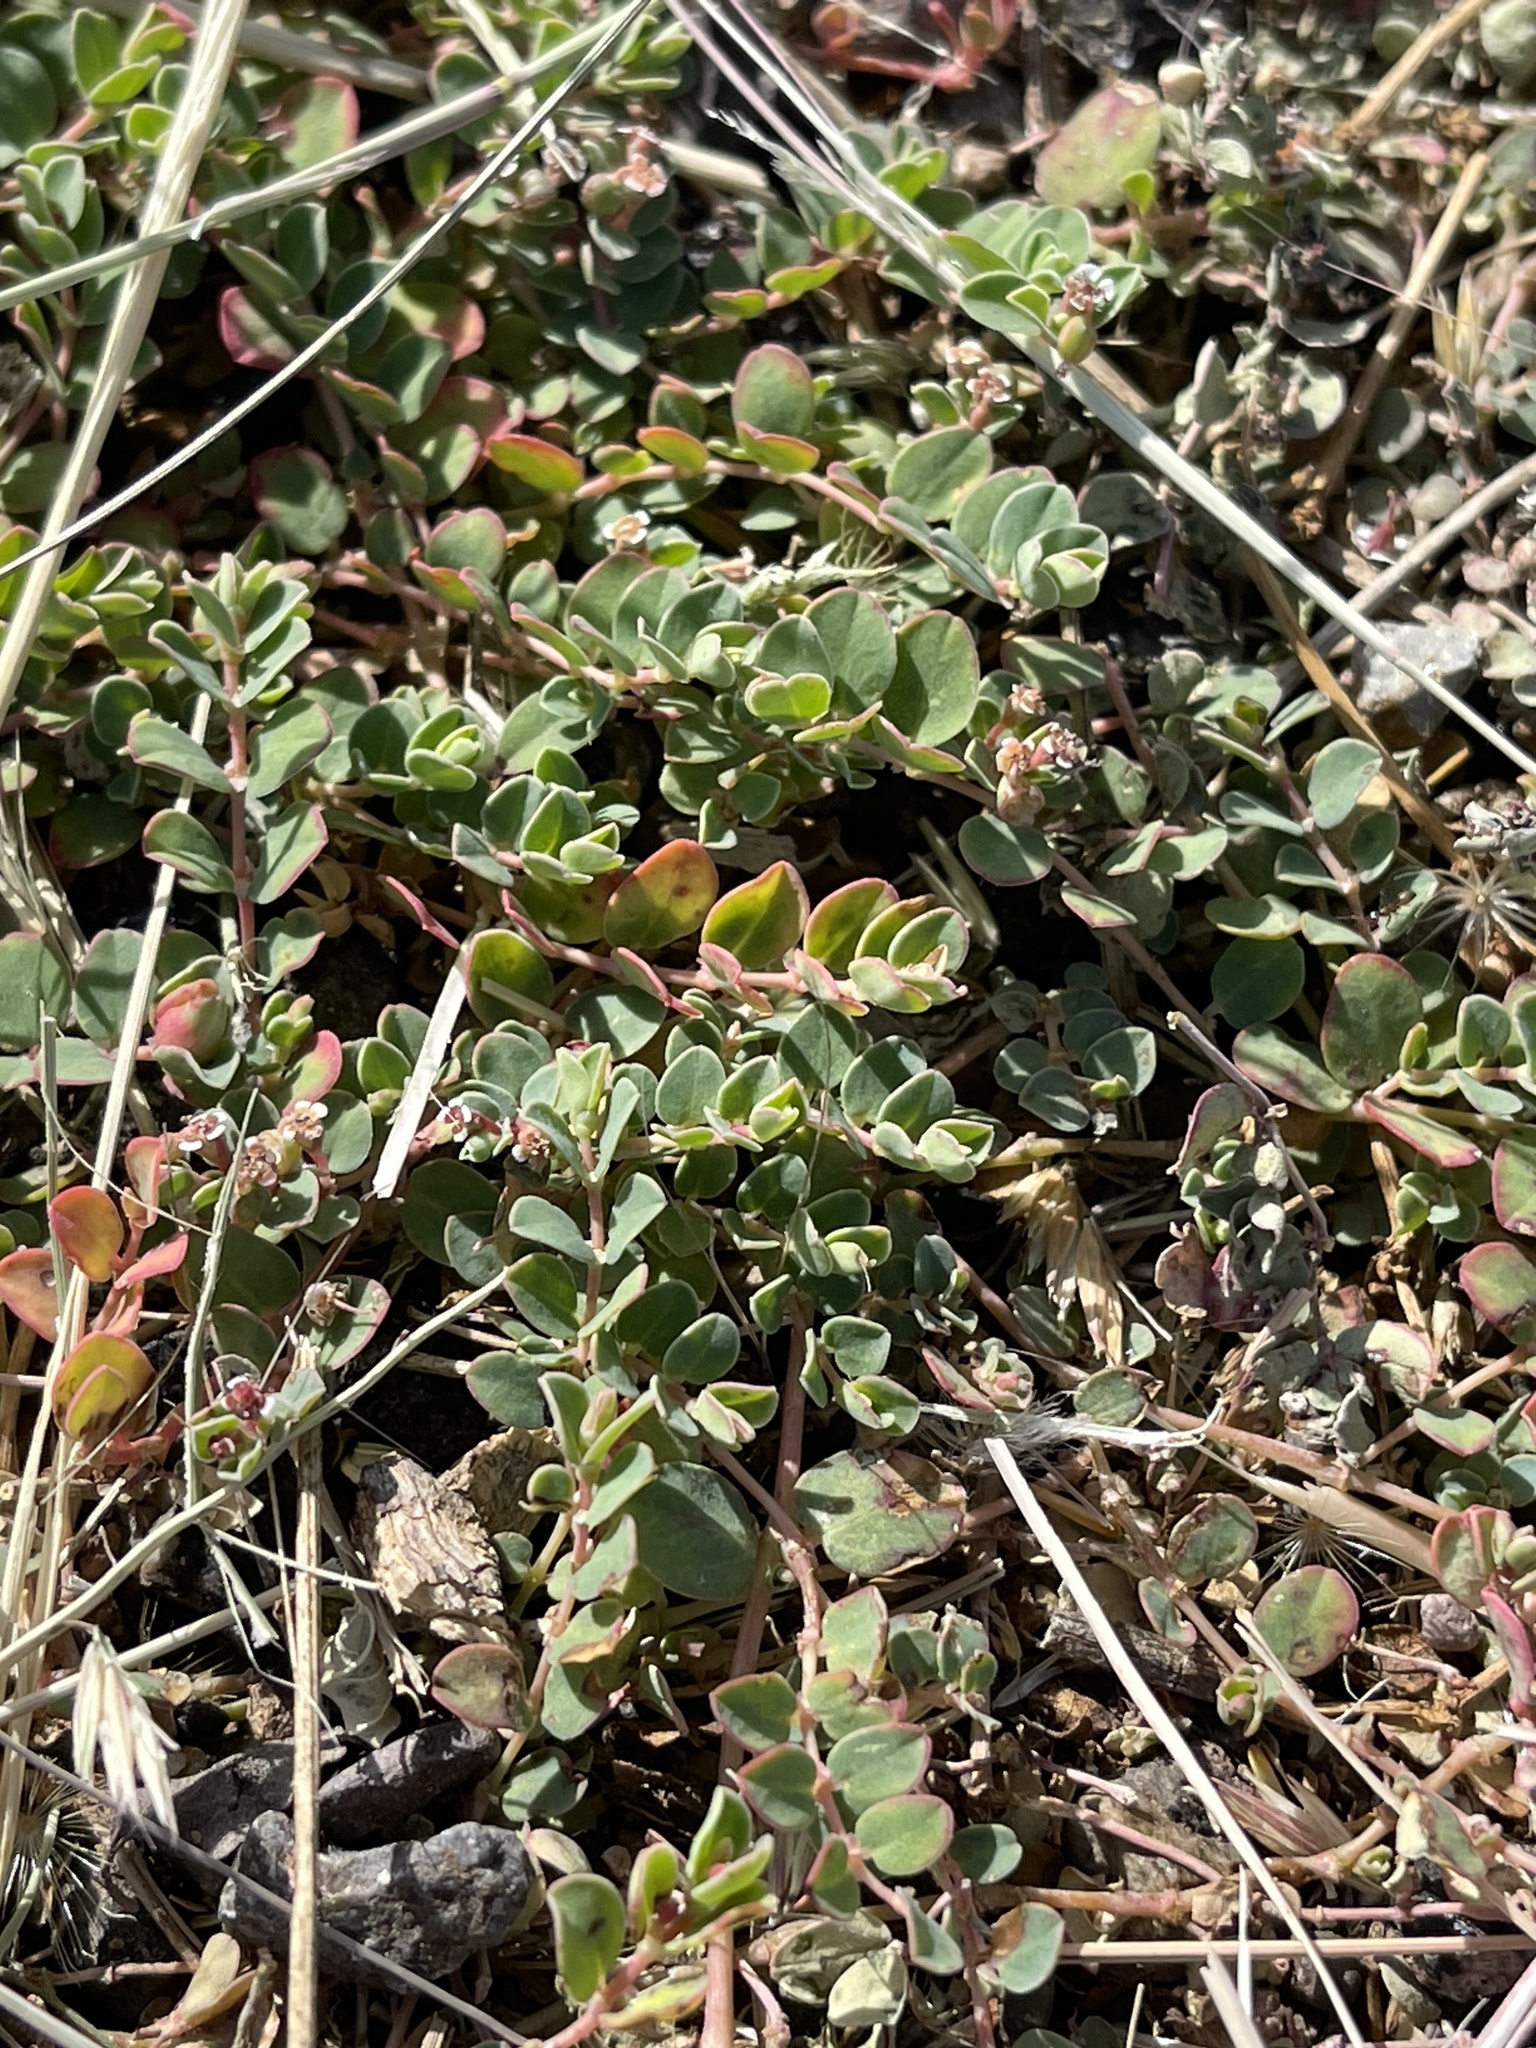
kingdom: Plantae
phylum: Tracheophyta
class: Magnoliopsida
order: Malpighiales
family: Euphorbiaceae
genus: Euphorbia
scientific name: Euphorbia albomarginata
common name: Whitemargin sandmat
